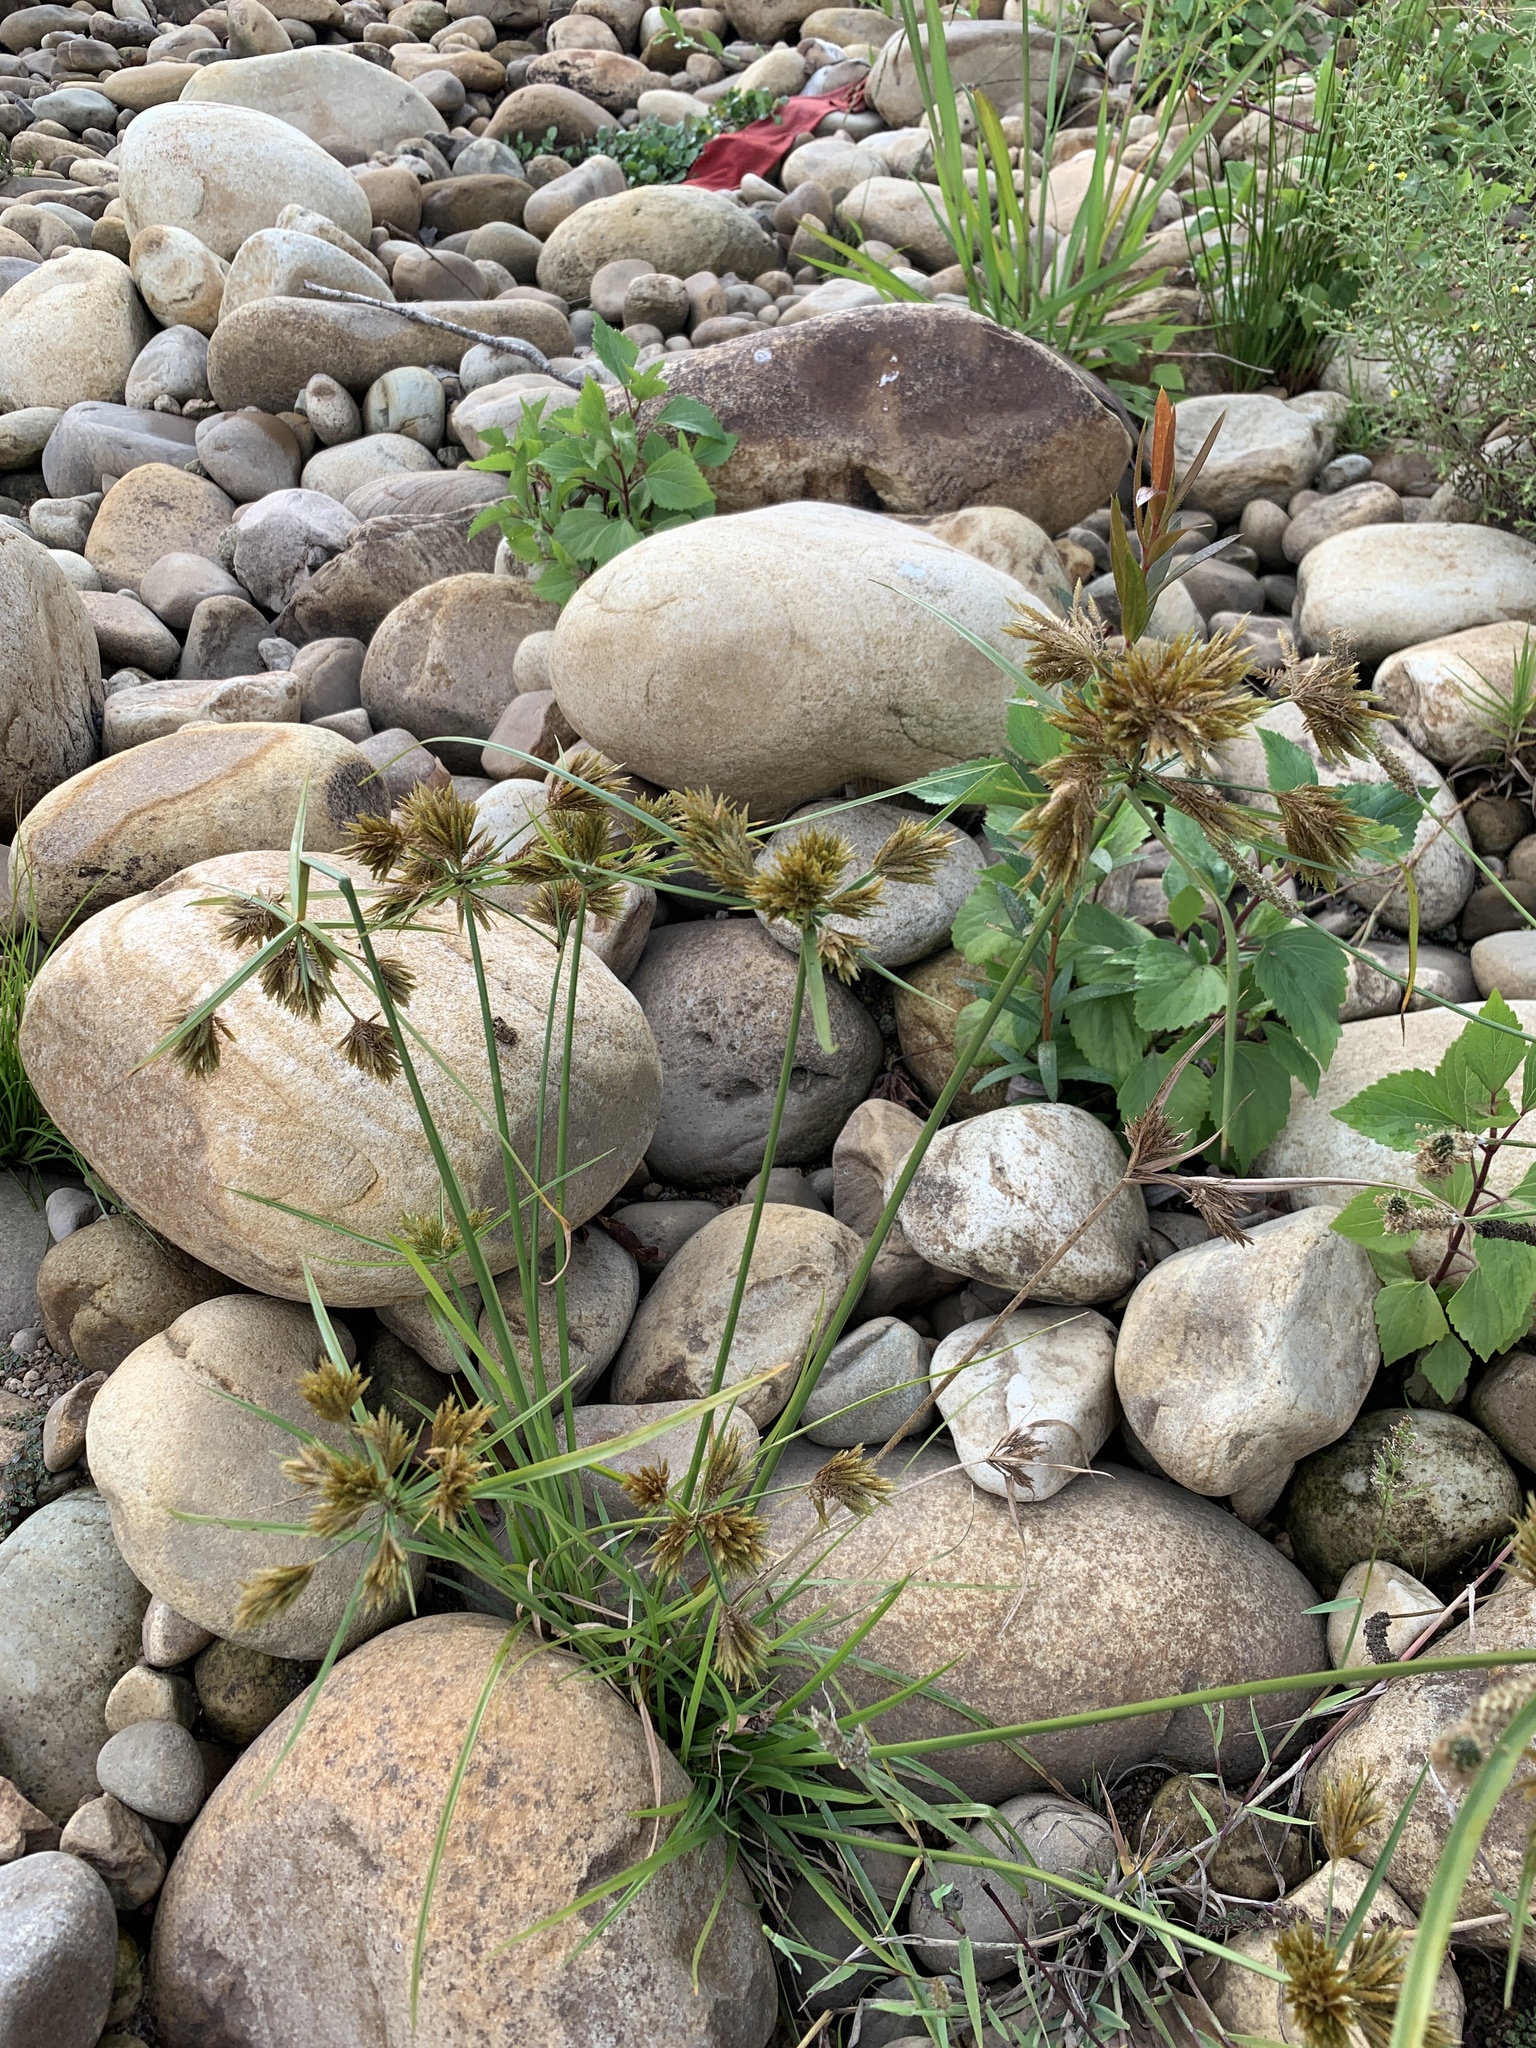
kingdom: Plantae
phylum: Tracheophyta
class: Liliopsida
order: Poales
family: Cyperaceae
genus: Cyperus
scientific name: Cyperus polystachyos
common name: Bunchy flat sedge
